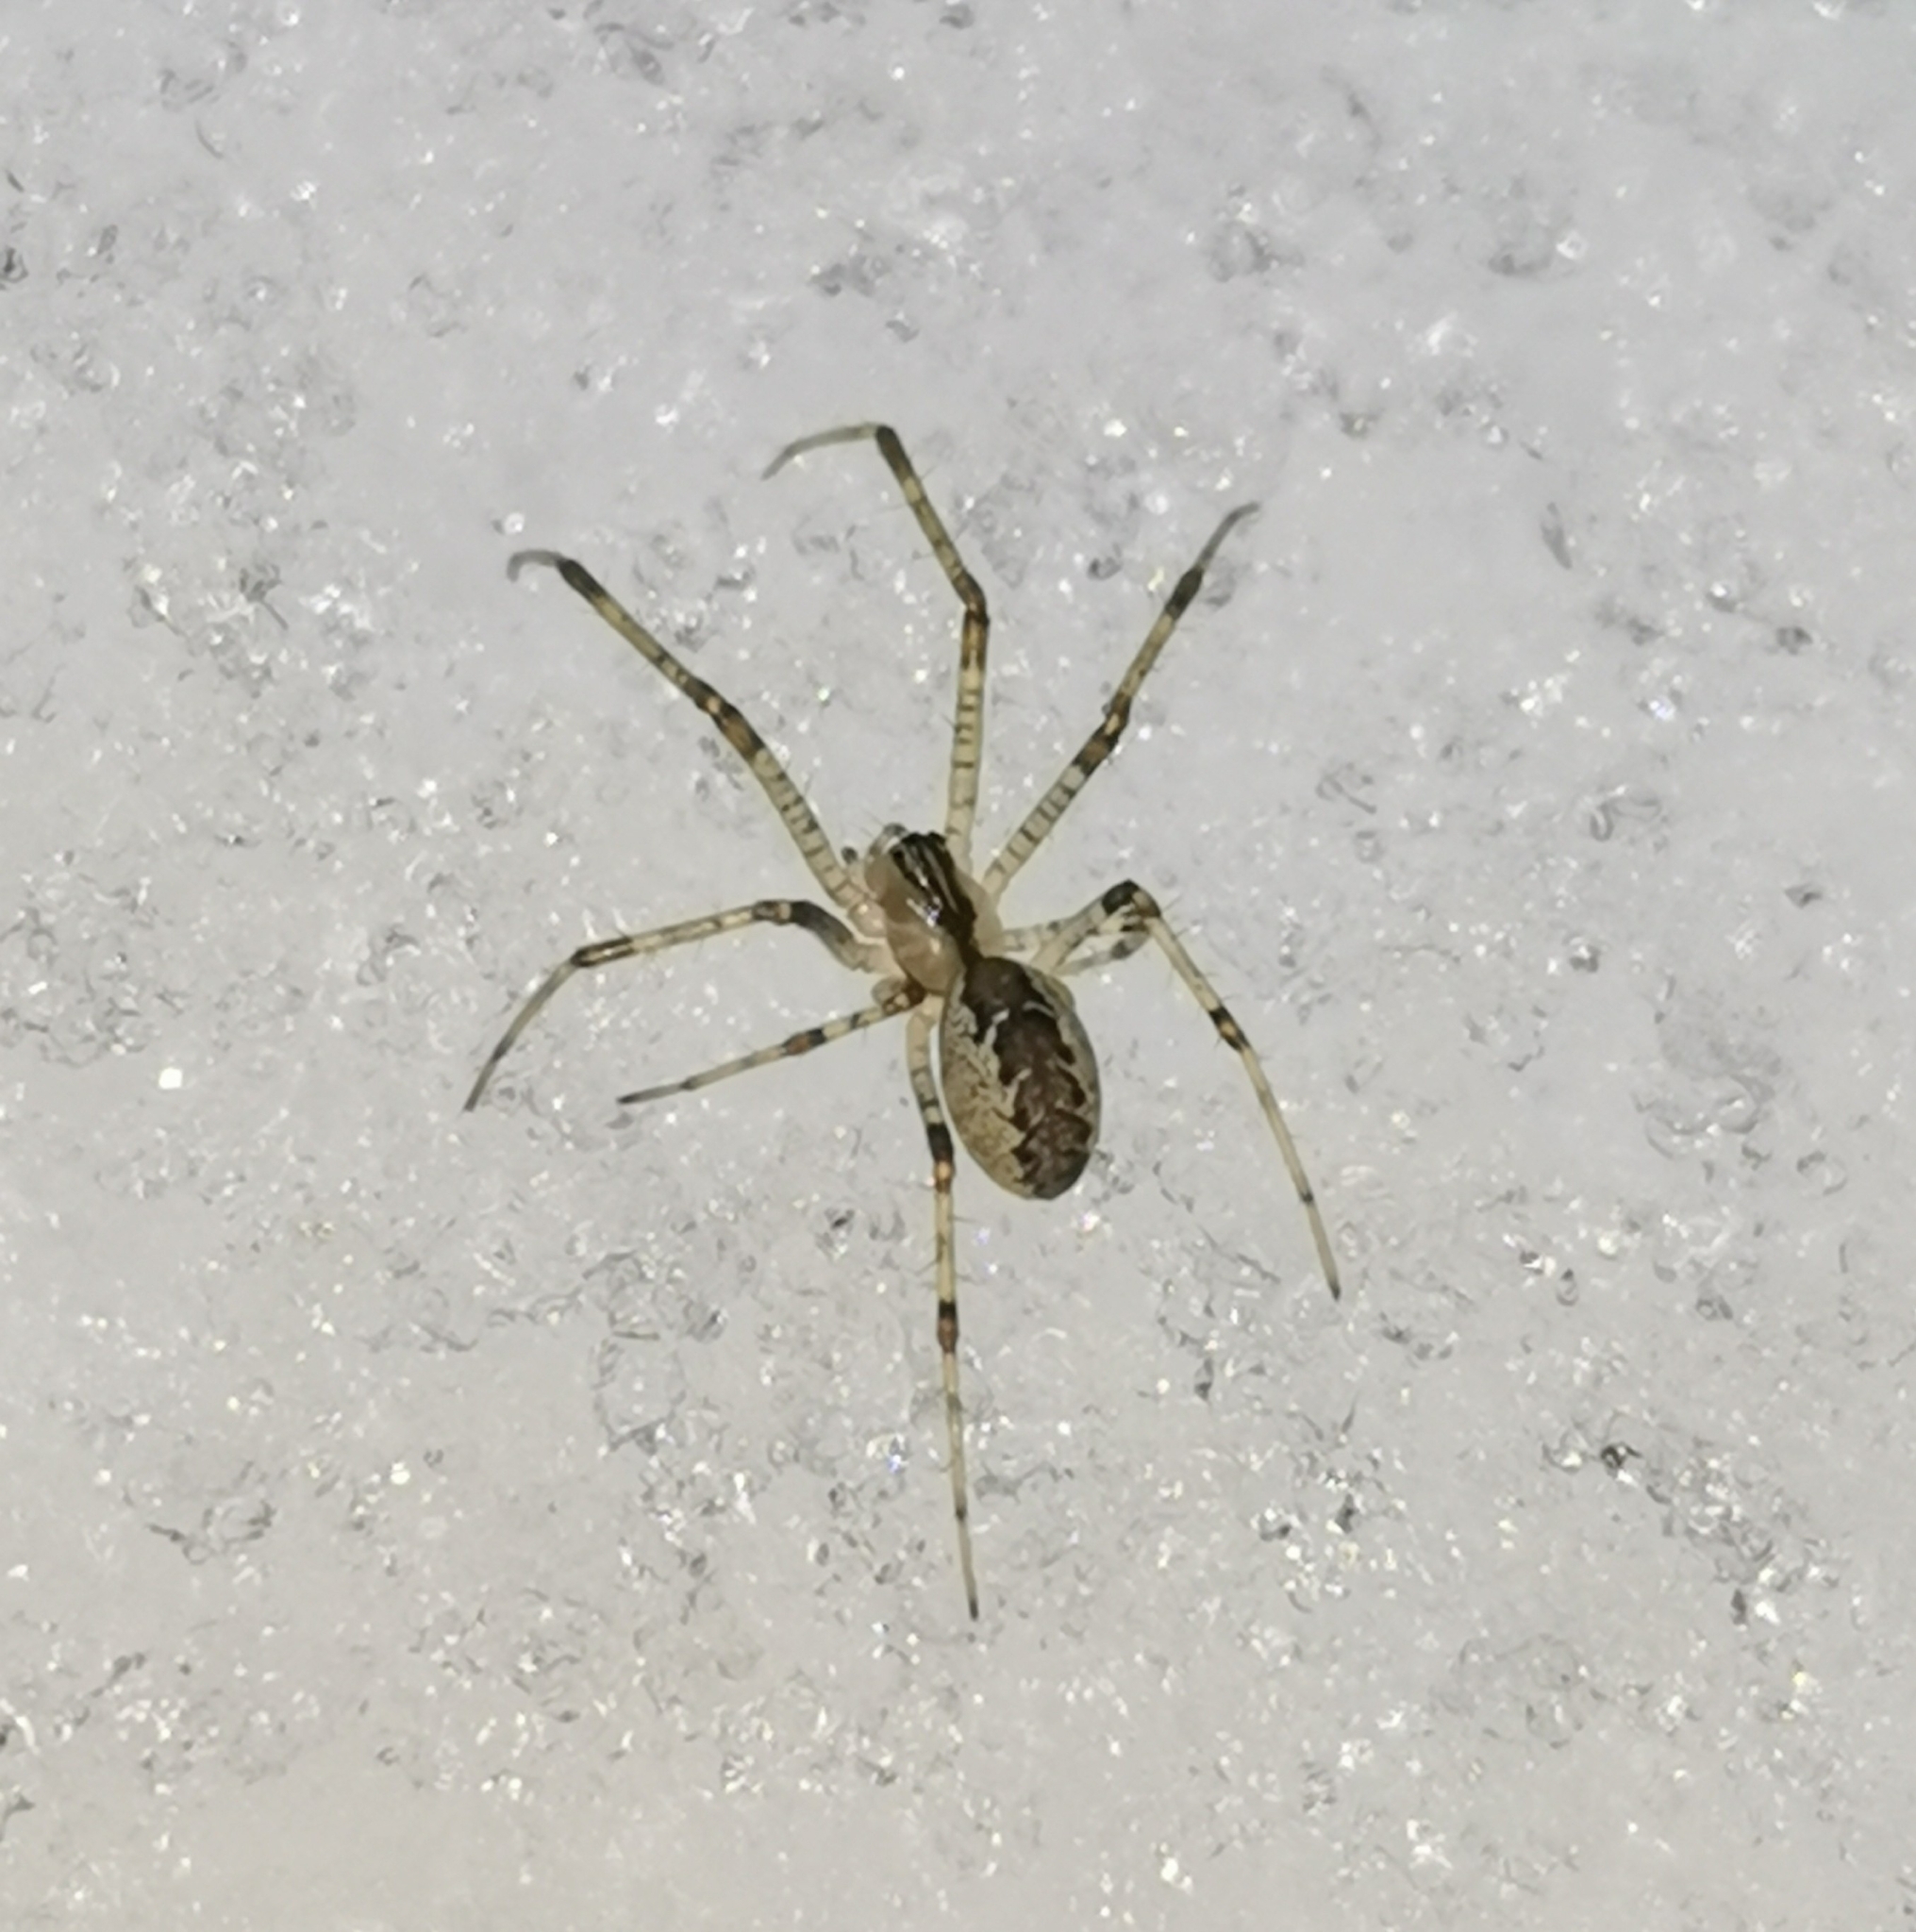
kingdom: Animalia
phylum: Arthropoda
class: Arachnida
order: Araneae
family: Linyphiidae
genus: Pityohyphantes
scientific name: Pityohyphantes phrygianus
